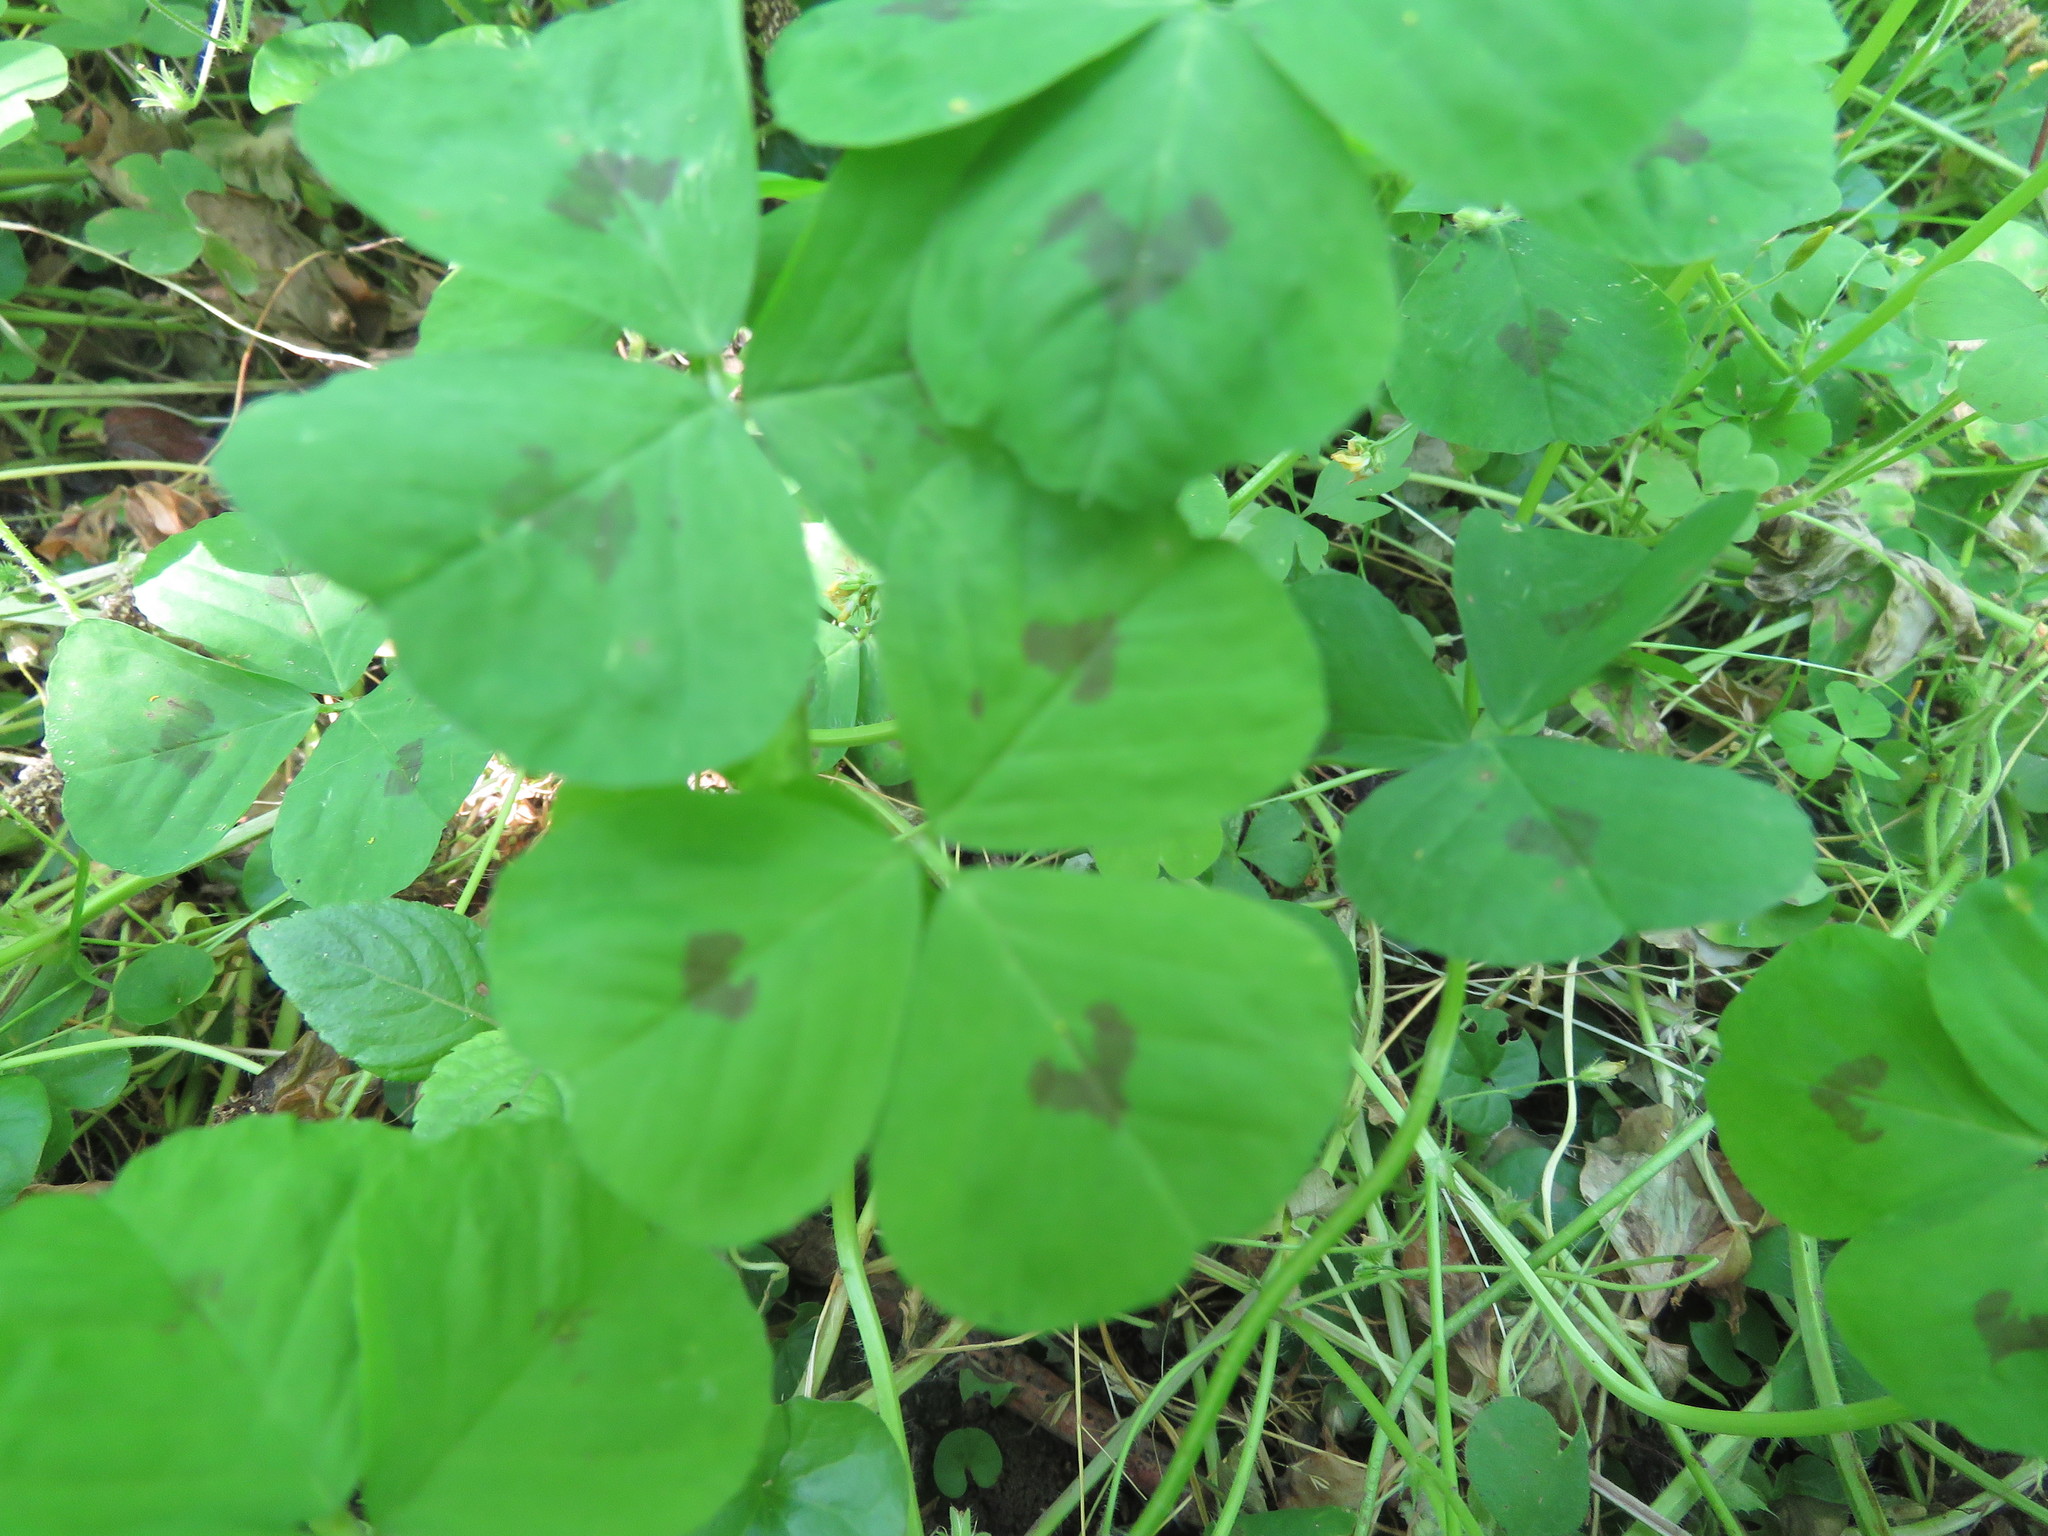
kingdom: Plantae
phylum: Tracheophyta
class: Magnoliopsida
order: Fabales
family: Fabaceae
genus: Medicago
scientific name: Medicago arabica
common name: Spotted medick
